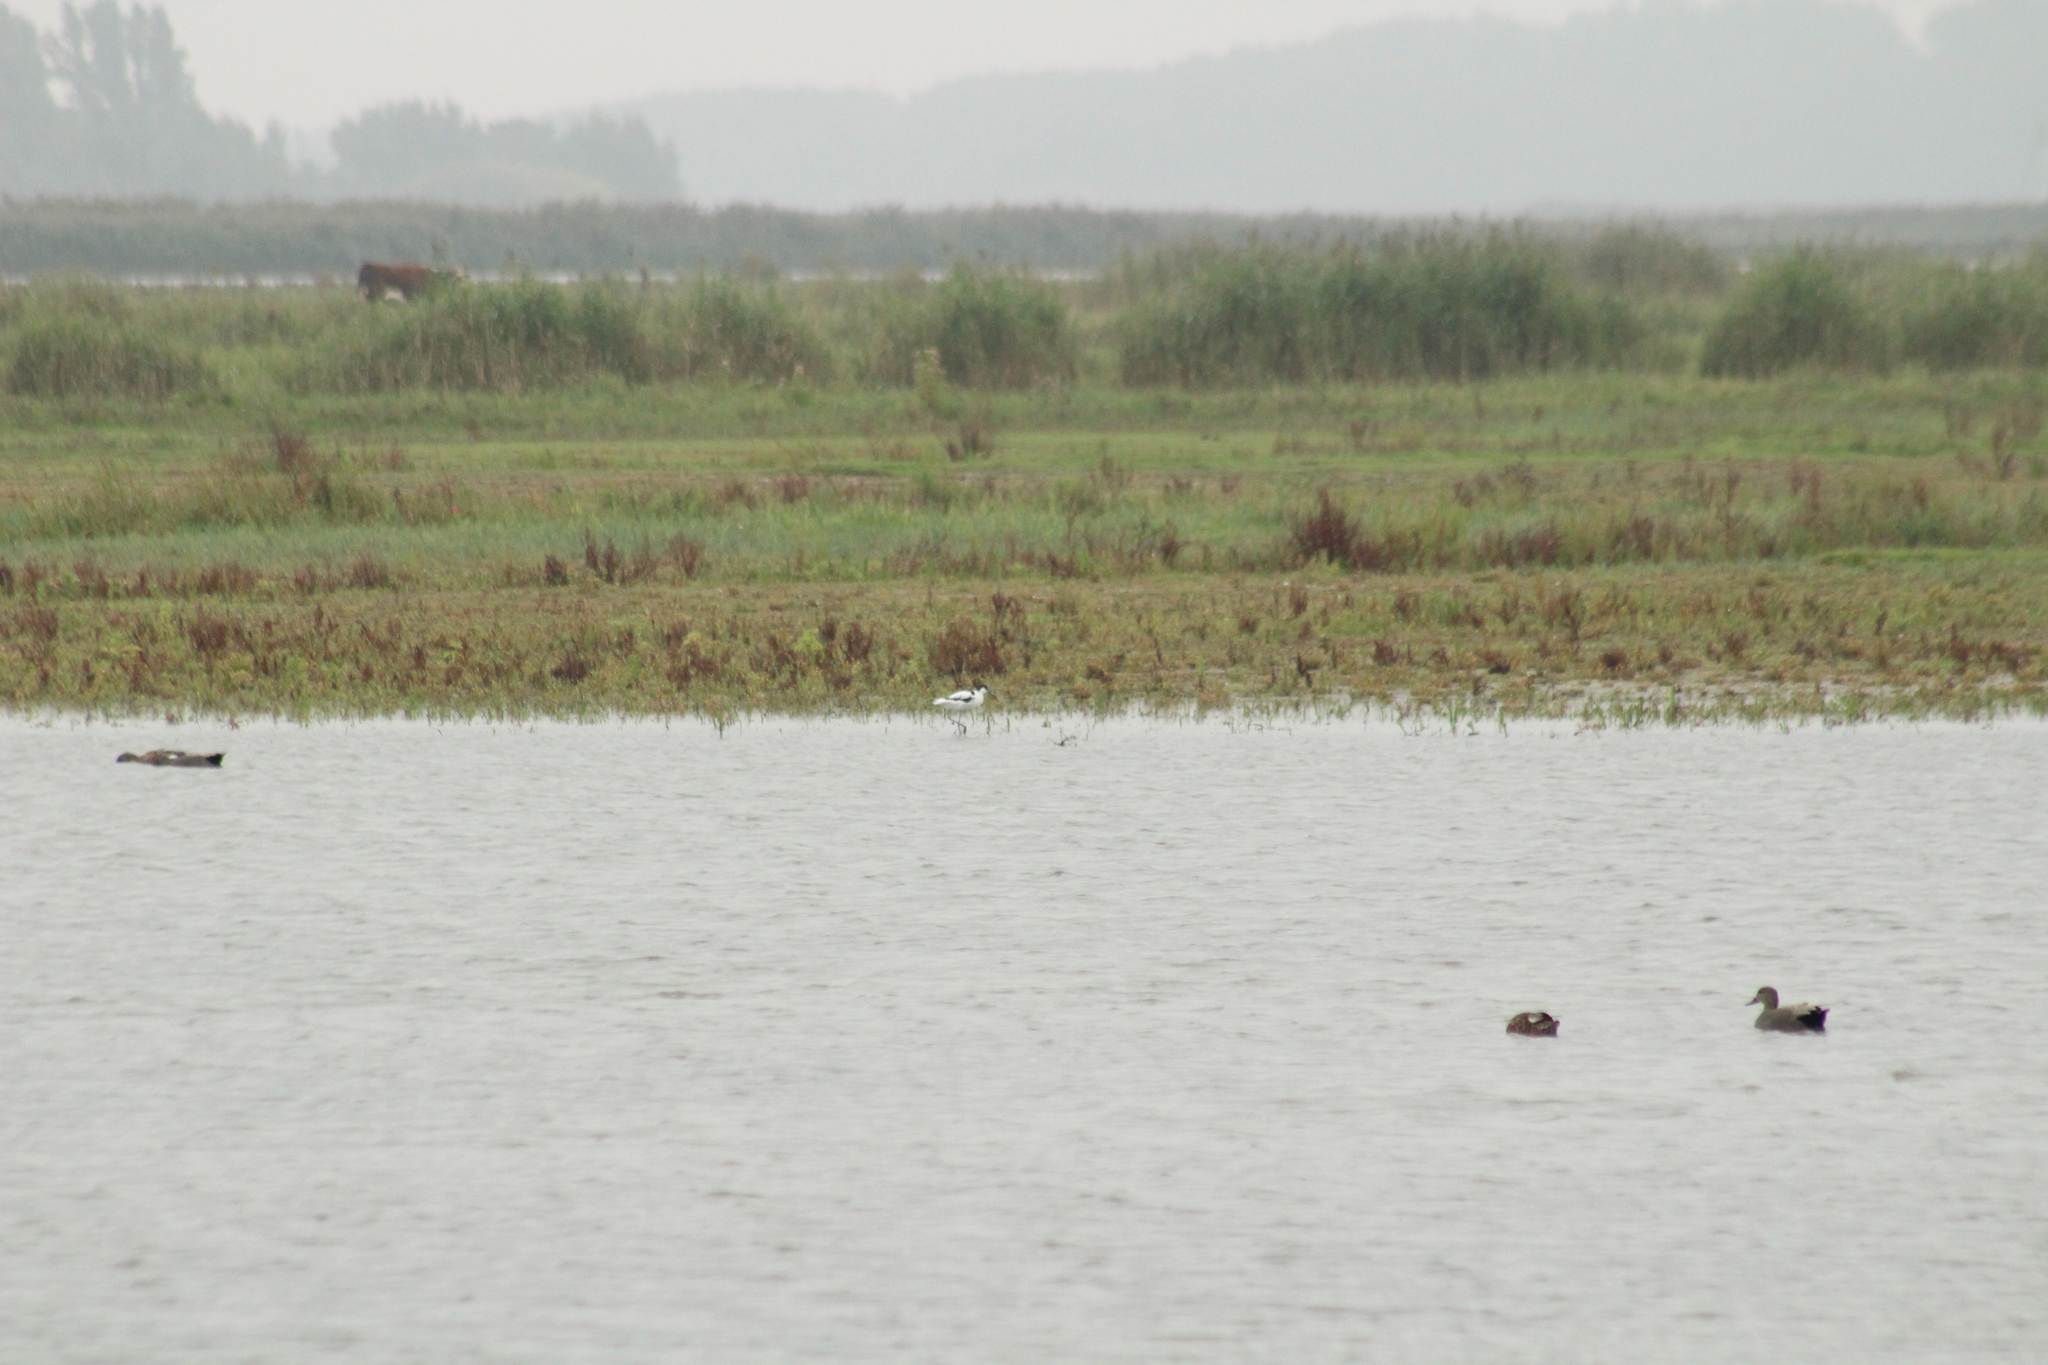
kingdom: Animalia
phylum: Chordata
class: Aves
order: Charadriiformes
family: Recurvirostridae
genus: Recurvirostra
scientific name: Recurvirostra avosetta
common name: Pied avocet
